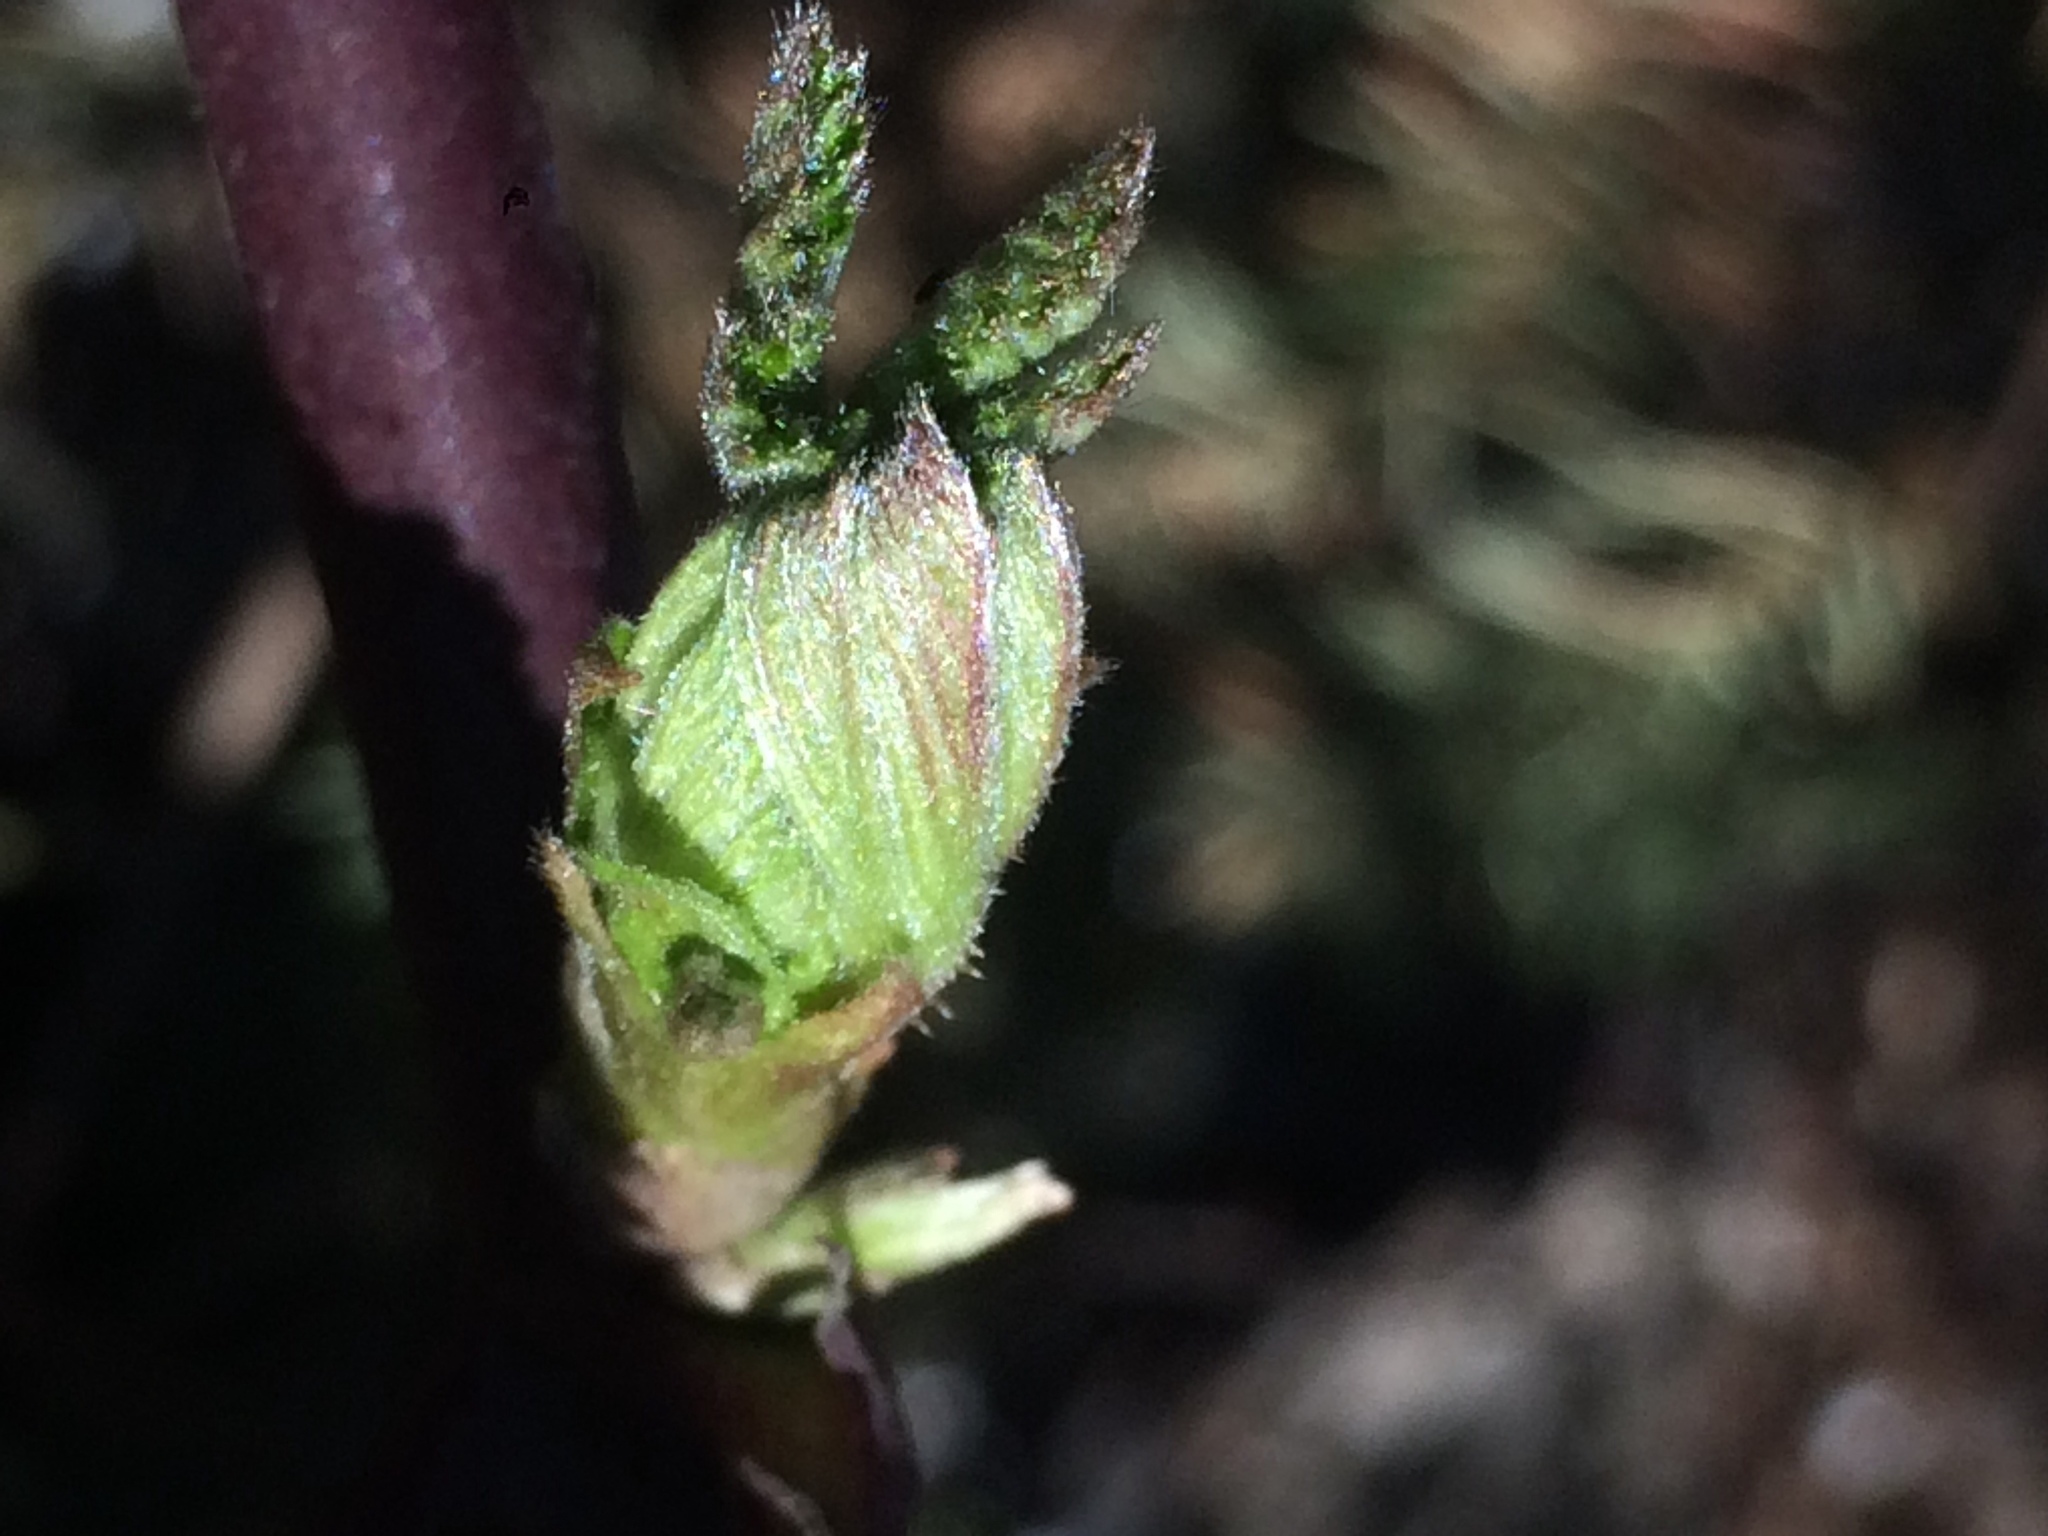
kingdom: Plantae
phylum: Tracheophyta
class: Magnoliopsida
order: Rosales
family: Rosaceae
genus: Rubus
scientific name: Rubus bifrons
